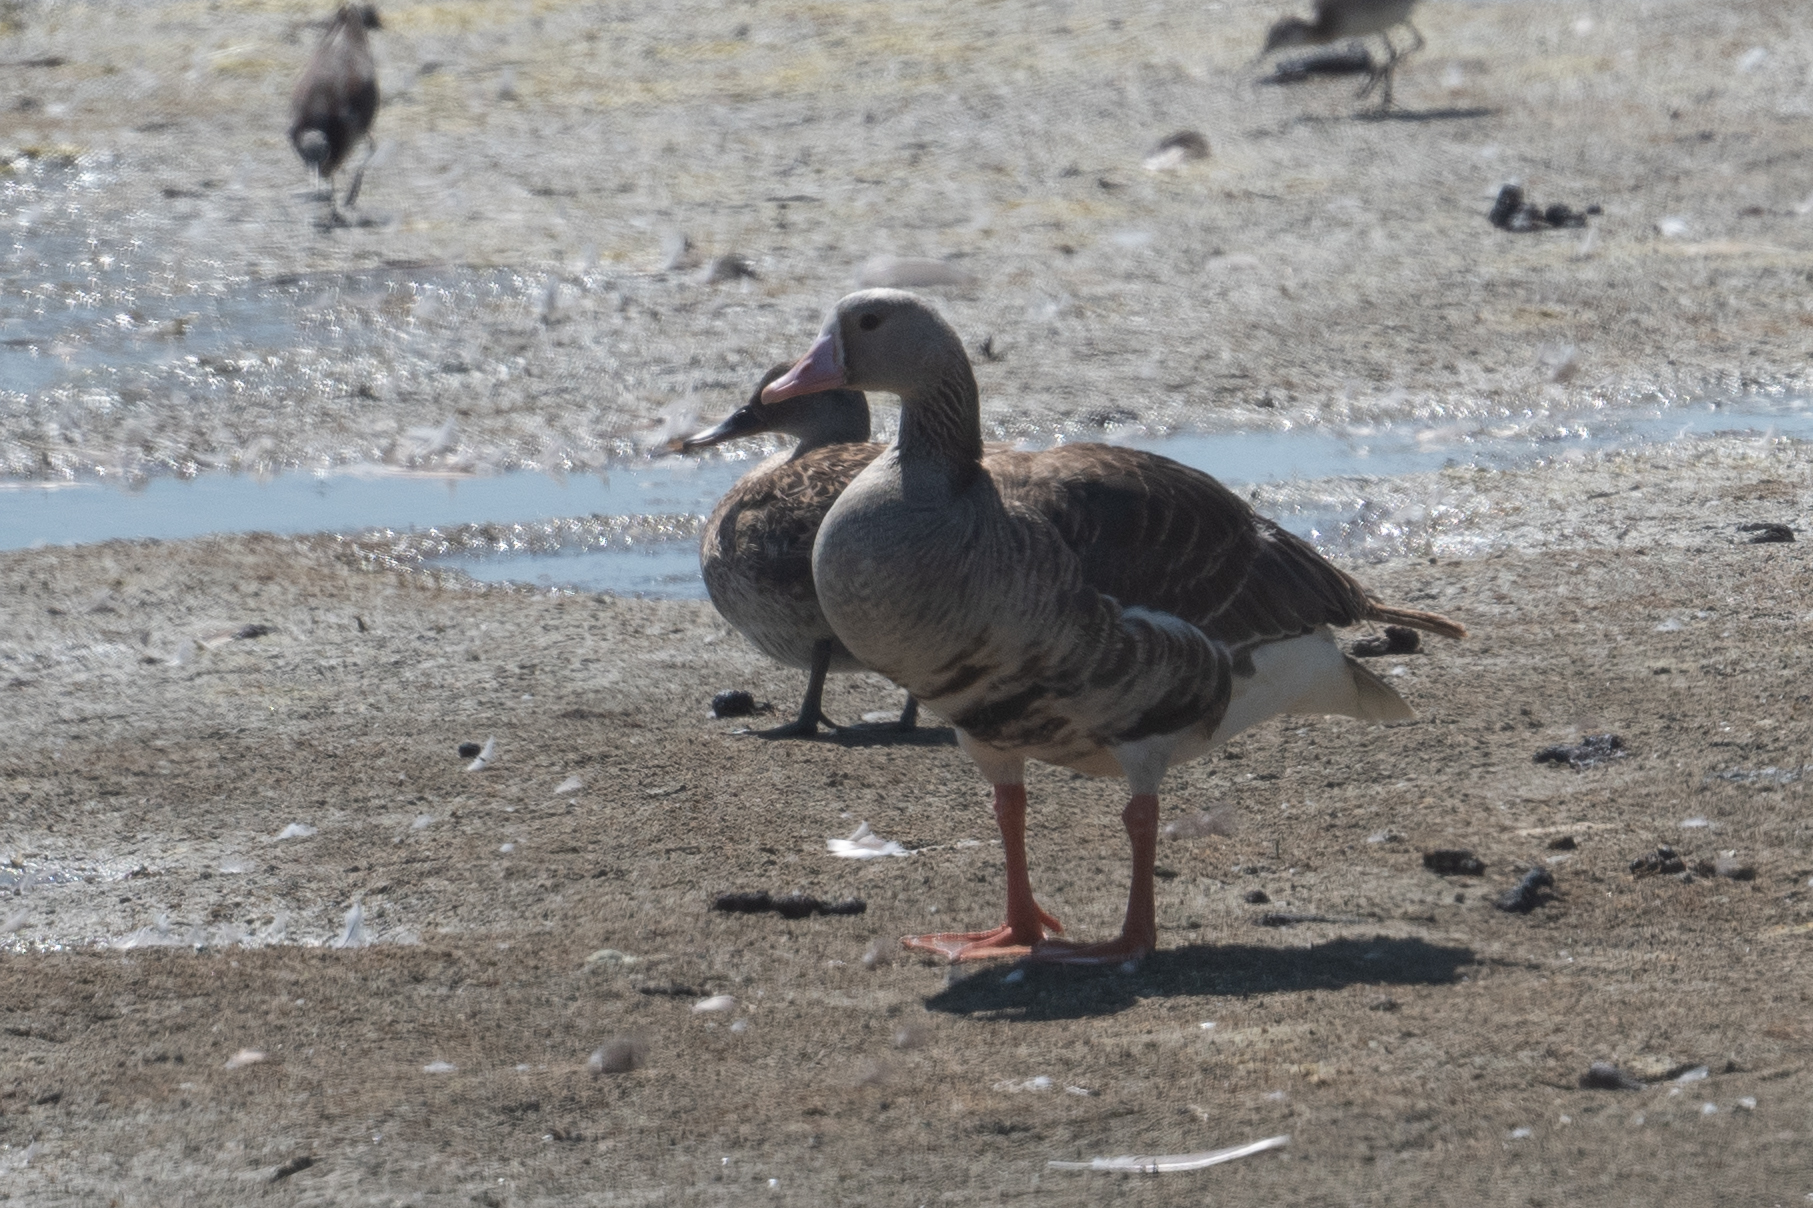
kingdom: Animalia
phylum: Chordata
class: Aves
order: Anseriformes
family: Anatidae
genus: Anser
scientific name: Anser albifrons
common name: Greater white-fronted goose
